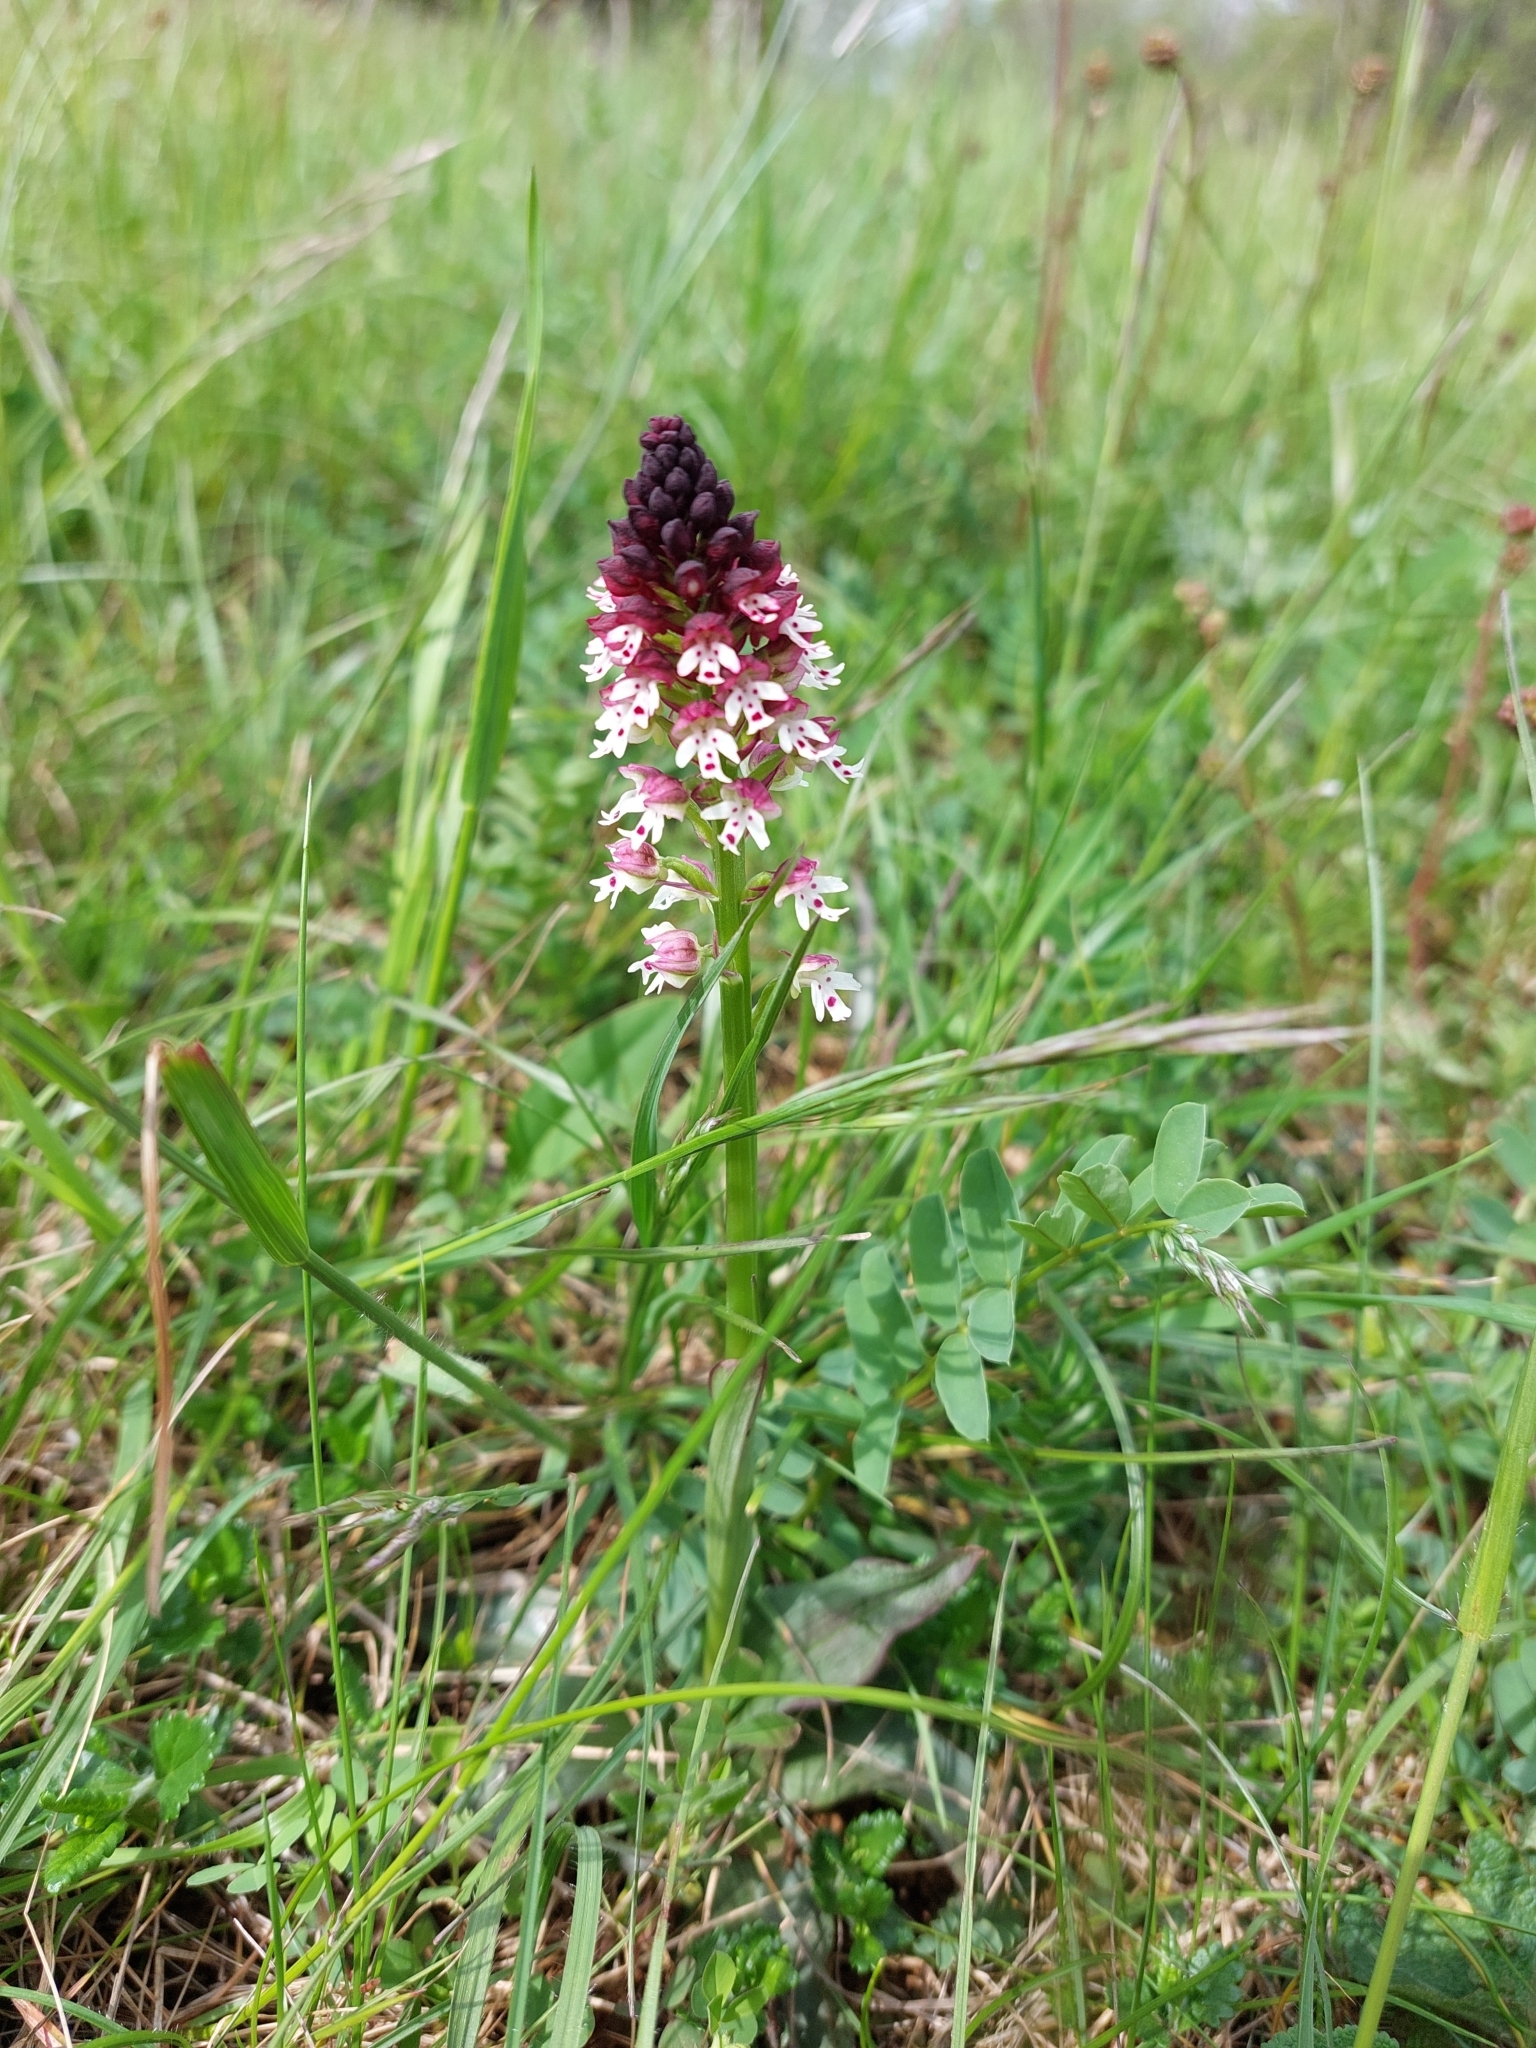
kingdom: Plantae
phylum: Tracheophyta
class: Liliopsida
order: Asparagales
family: Orchidaceae
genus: Neotinea
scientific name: Neotinea ustulata
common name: Burnt orchid
